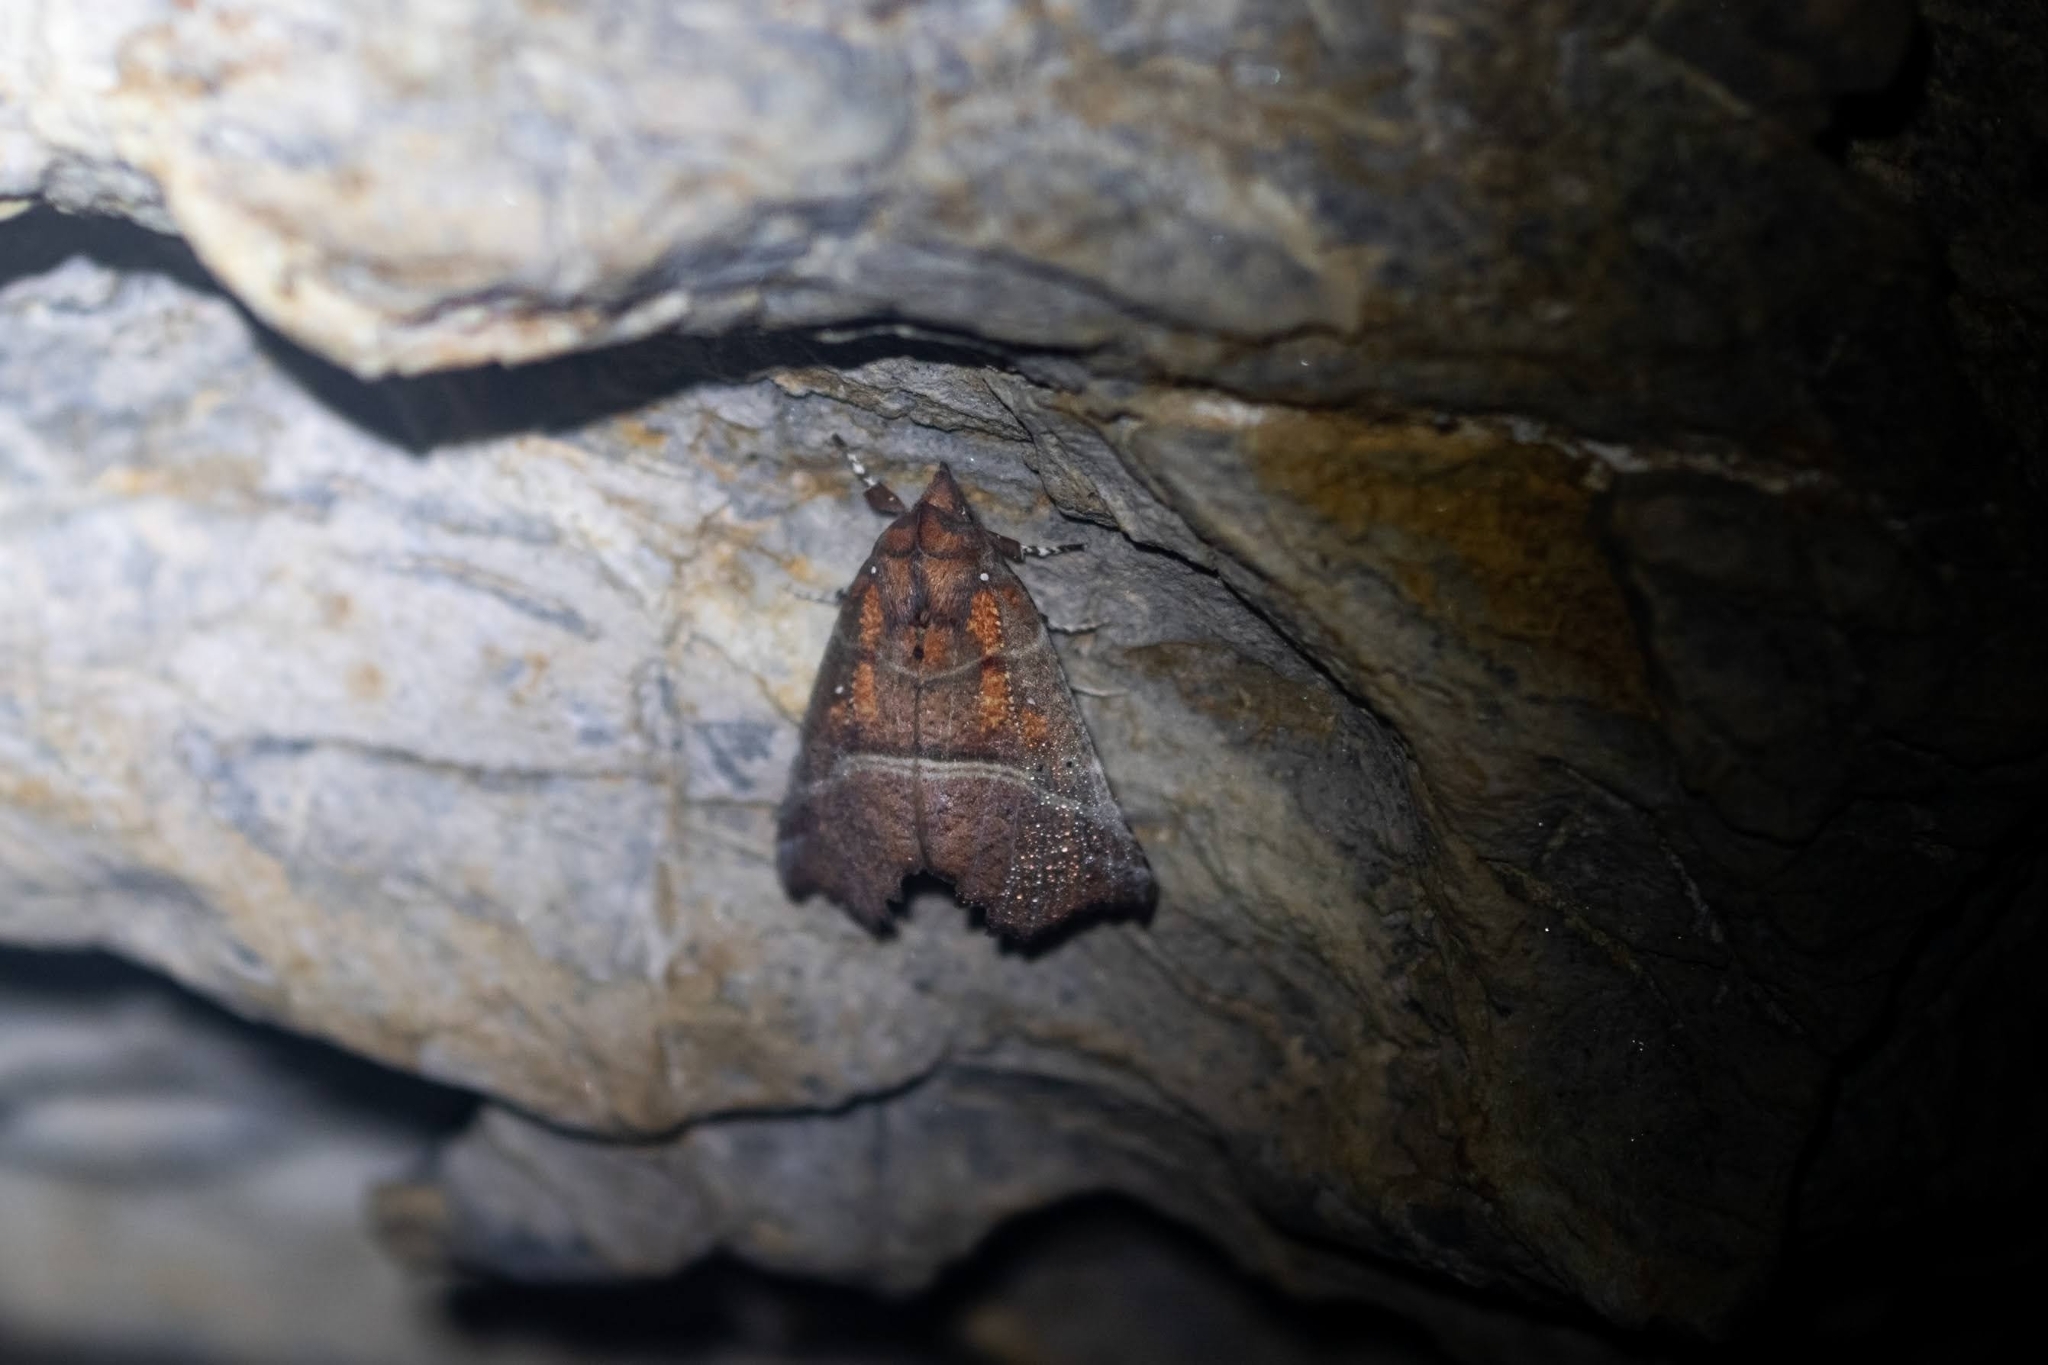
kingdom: Animalia
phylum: Arthropoda
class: Insecta
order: Lepidoptera
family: Erebidae
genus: Scoliopteryx
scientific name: Scoliopteryx libatrix
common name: Herald
